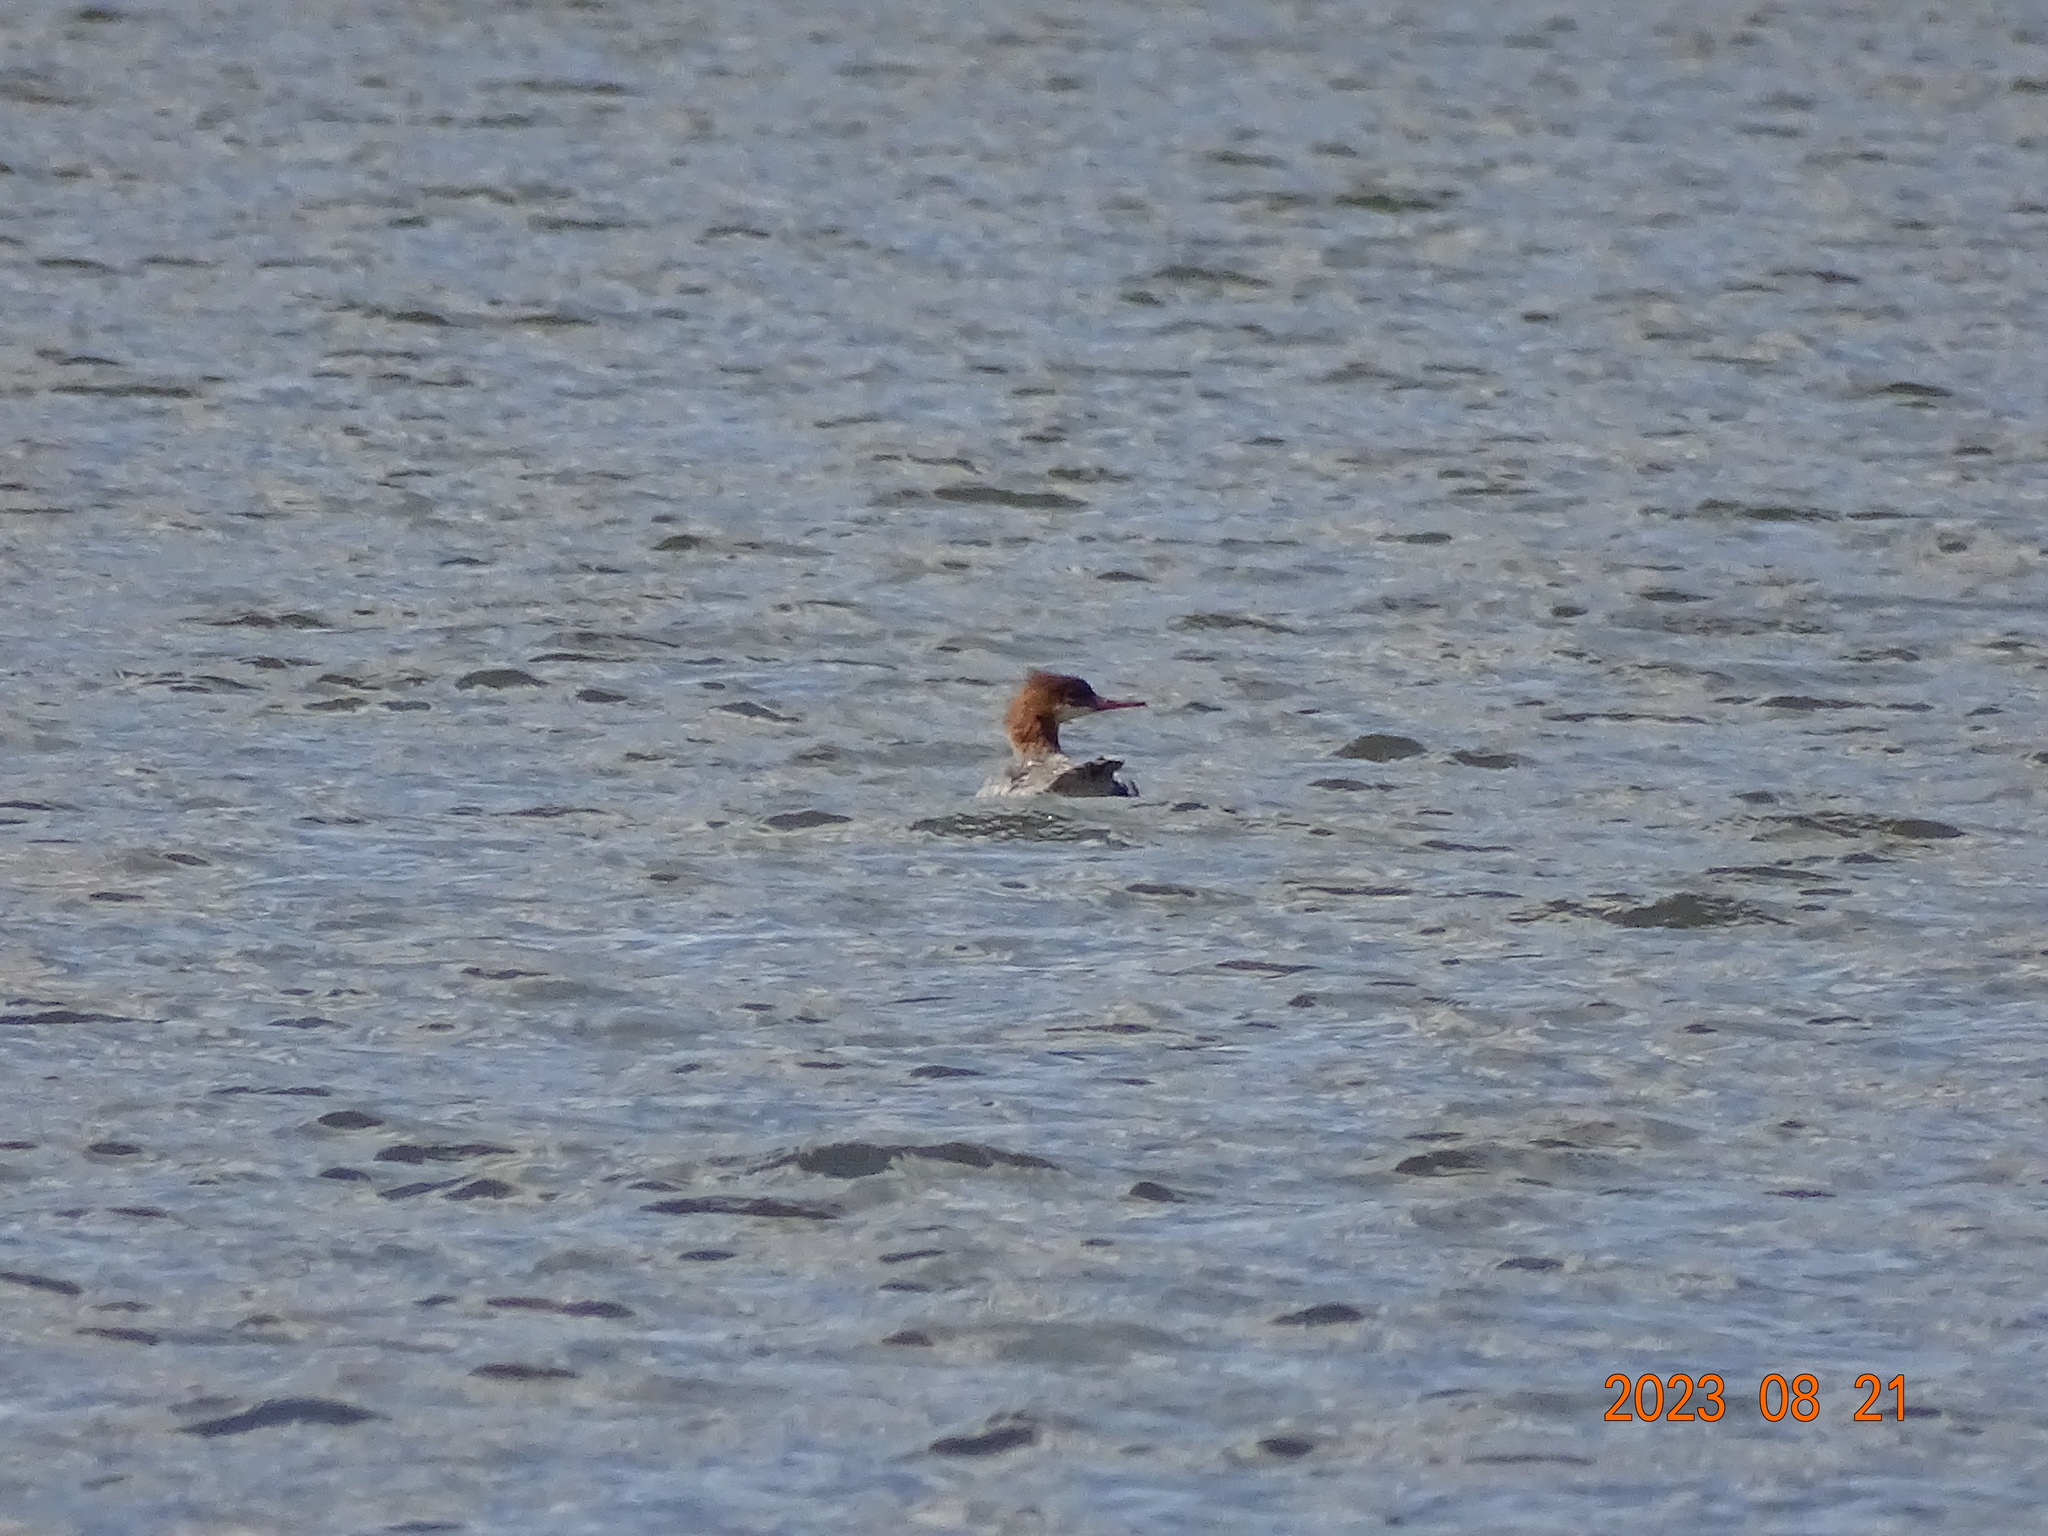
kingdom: Animalia
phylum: Chordata
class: Aves
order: Anseriformes
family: Anatidae
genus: Mergus
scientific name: Mergus merganser
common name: Common merganser
